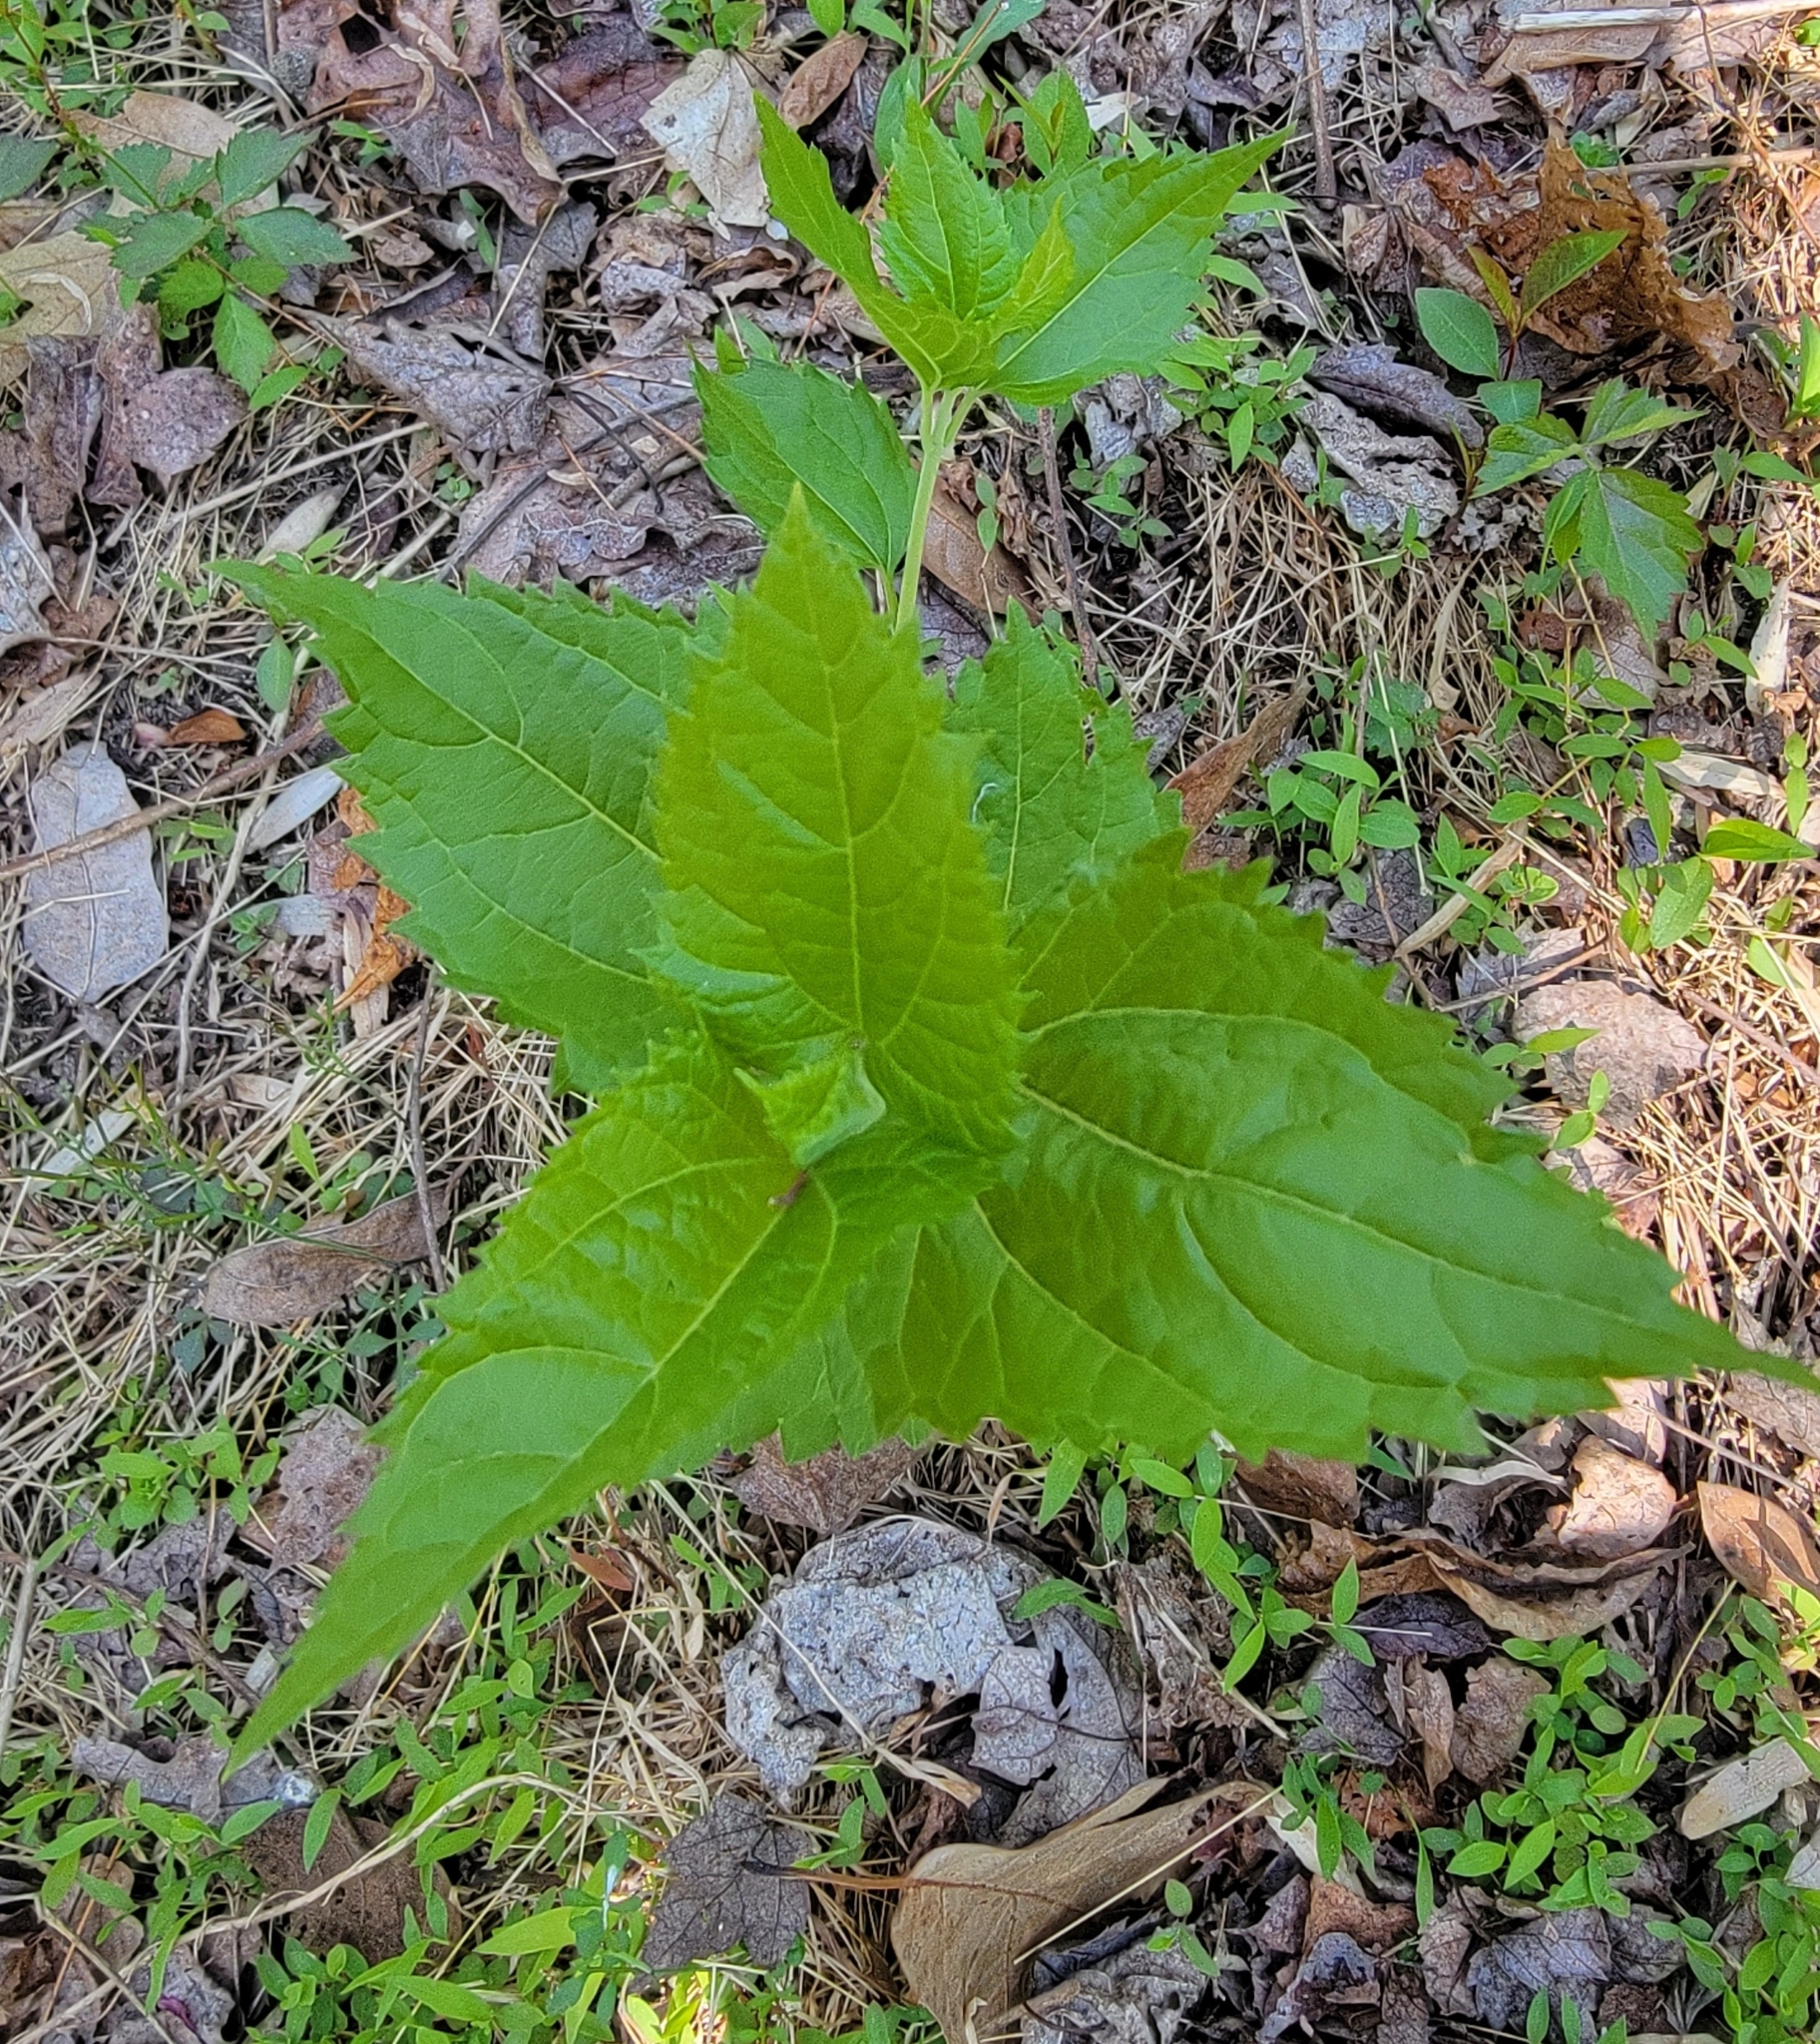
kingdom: Plantae
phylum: Tracheophyta
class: Magnoliopsida
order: Asterales
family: Asteraceae
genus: Ageratina
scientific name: Ageratina altissima
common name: White snakeroot
